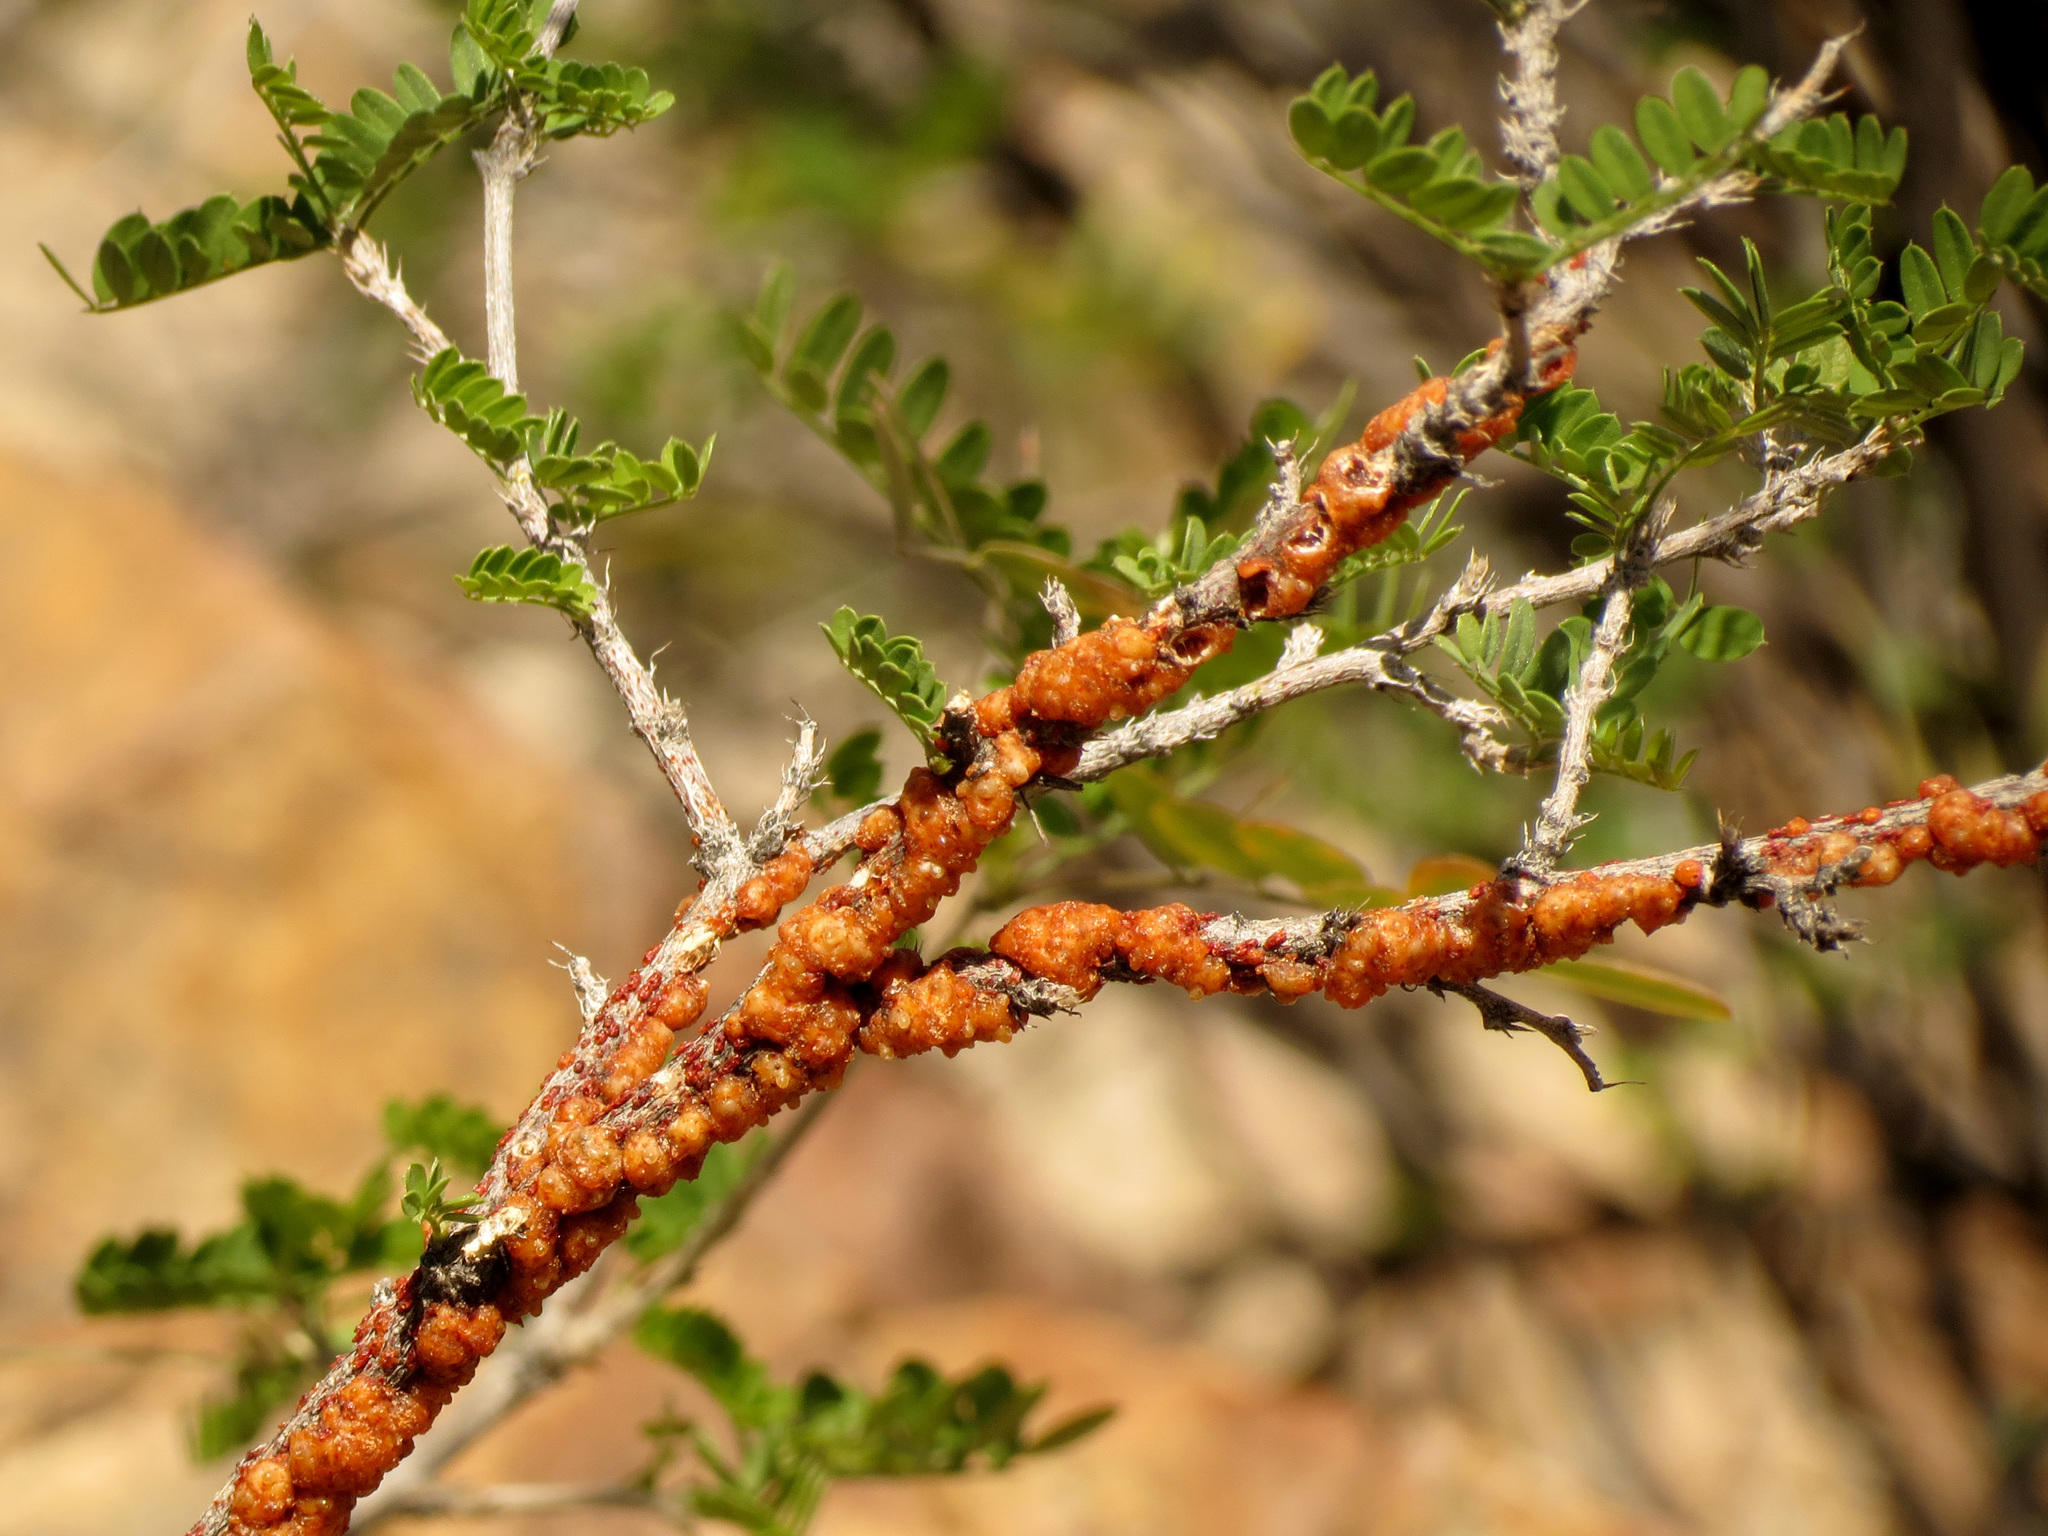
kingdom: Animalia
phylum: Arthropoda
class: Insecta
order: Hemiptera
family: Kerriidae
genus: Tachardiella
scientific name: Tachardiella fulgens
